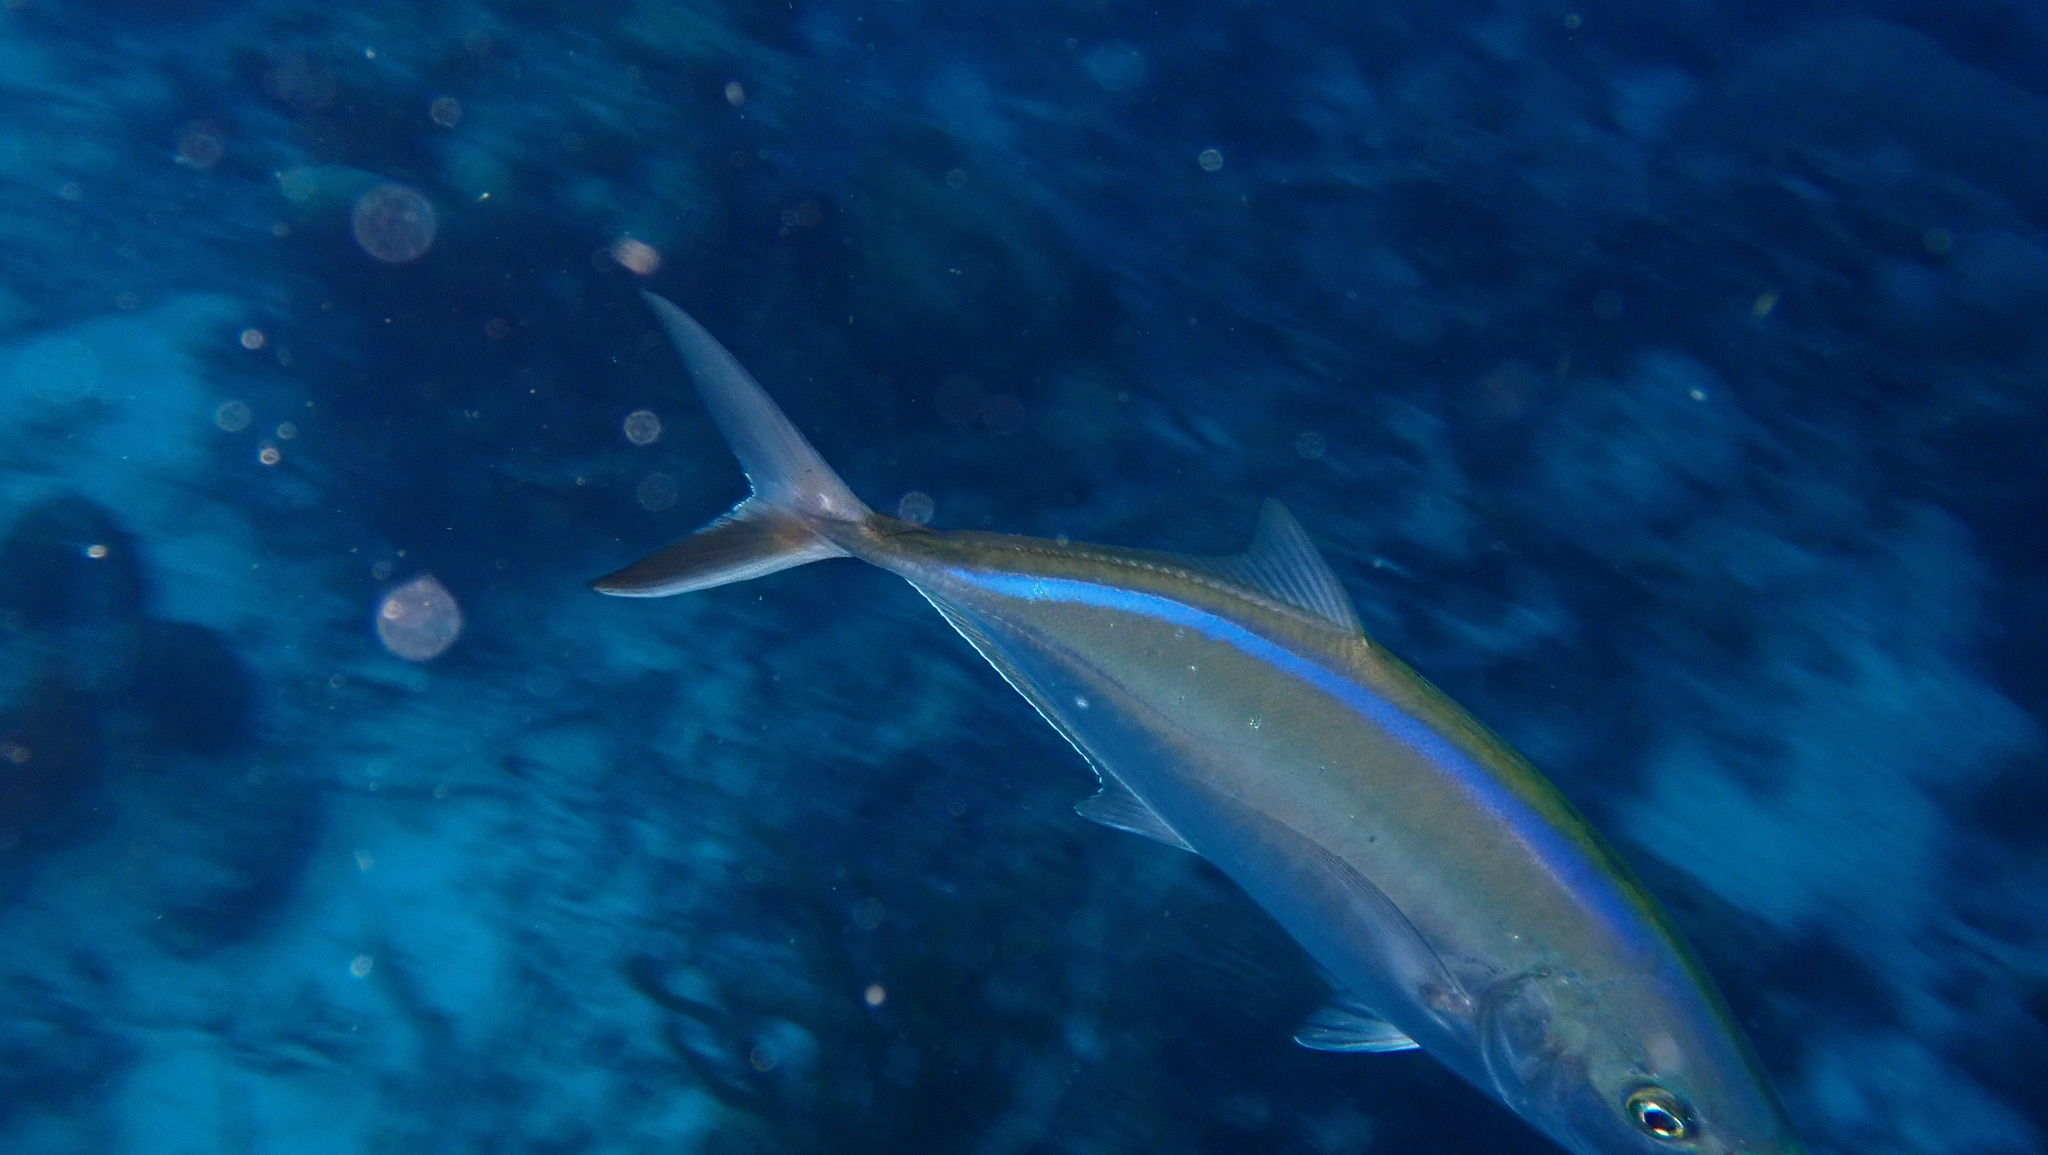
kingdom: Animalia
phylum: Chordata
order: Perciformes
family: Carangidae
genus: Caranx
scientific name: Caranx ruber
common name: Bar jack
